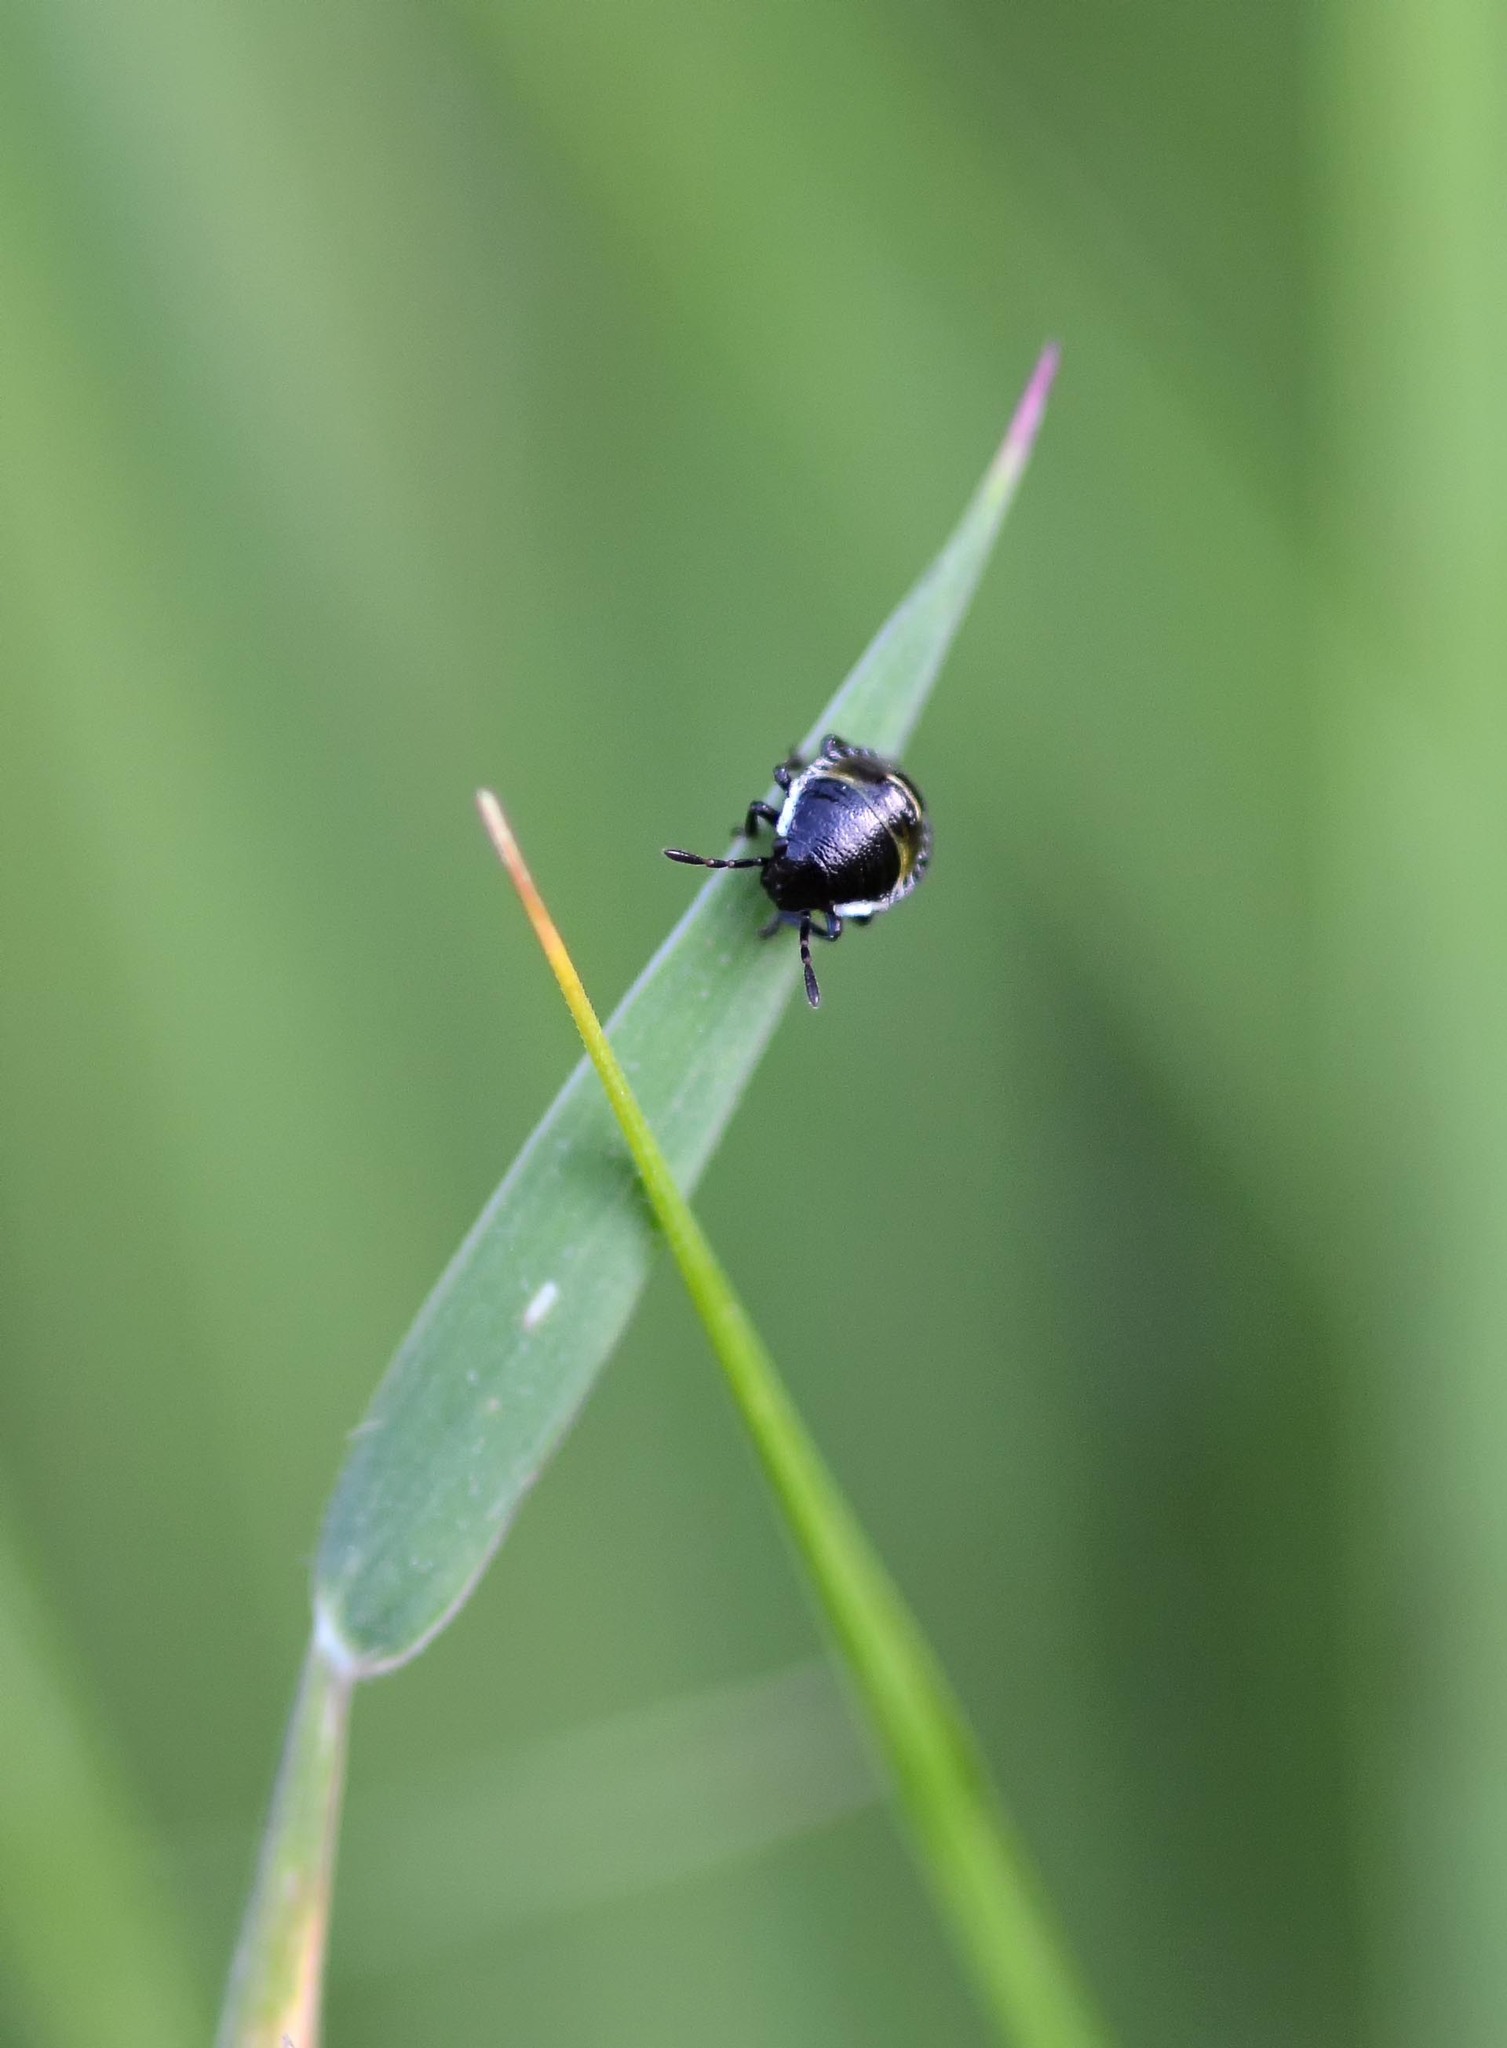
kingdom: Animalia
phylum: Arthropoda
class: Insecta
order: Hemiptera
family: Pentatomidae
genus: Palomena
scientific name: Palomena prasina
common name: Green shieldbug
